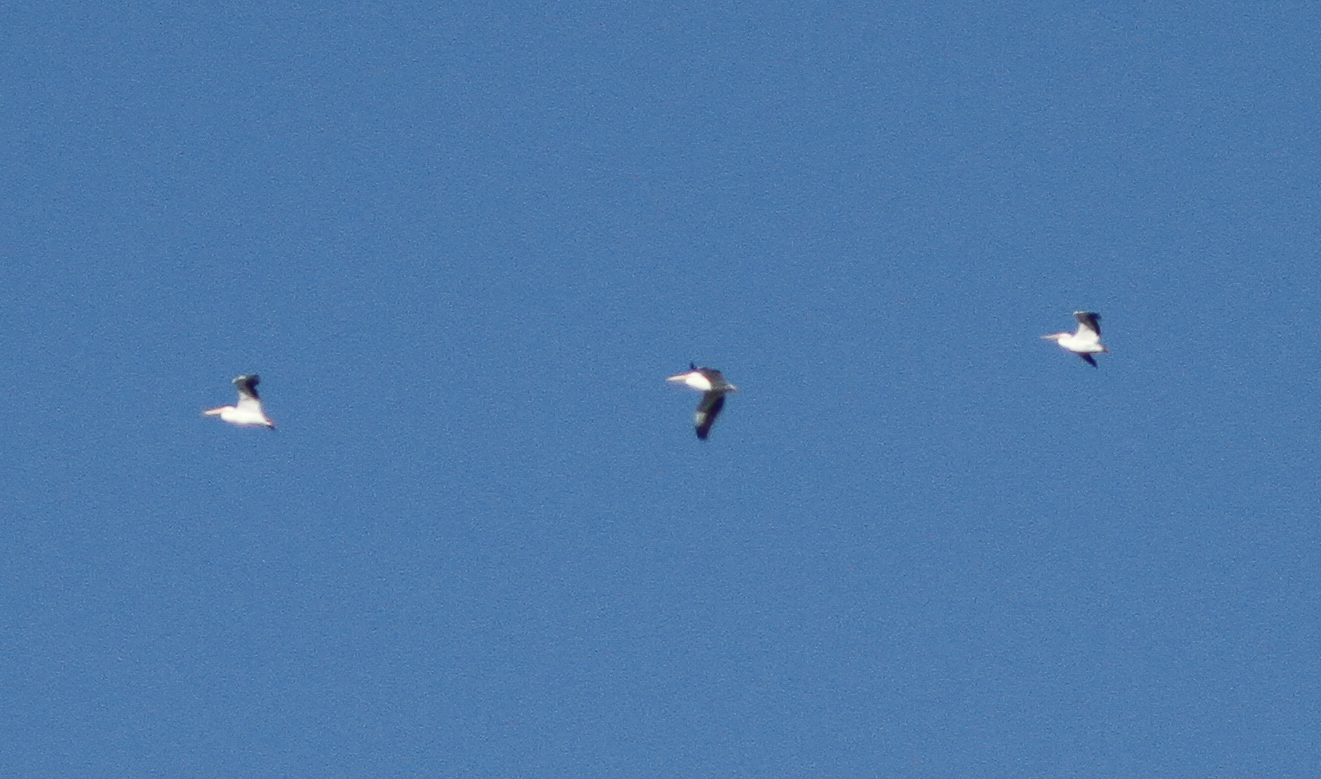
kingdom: Animalia
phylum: Chordata
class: Aves
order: Pelecaniformes
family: Pelecanidae
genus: Pelecanus
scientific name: Pelecanus erythrorhynchos
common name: American white pelican
